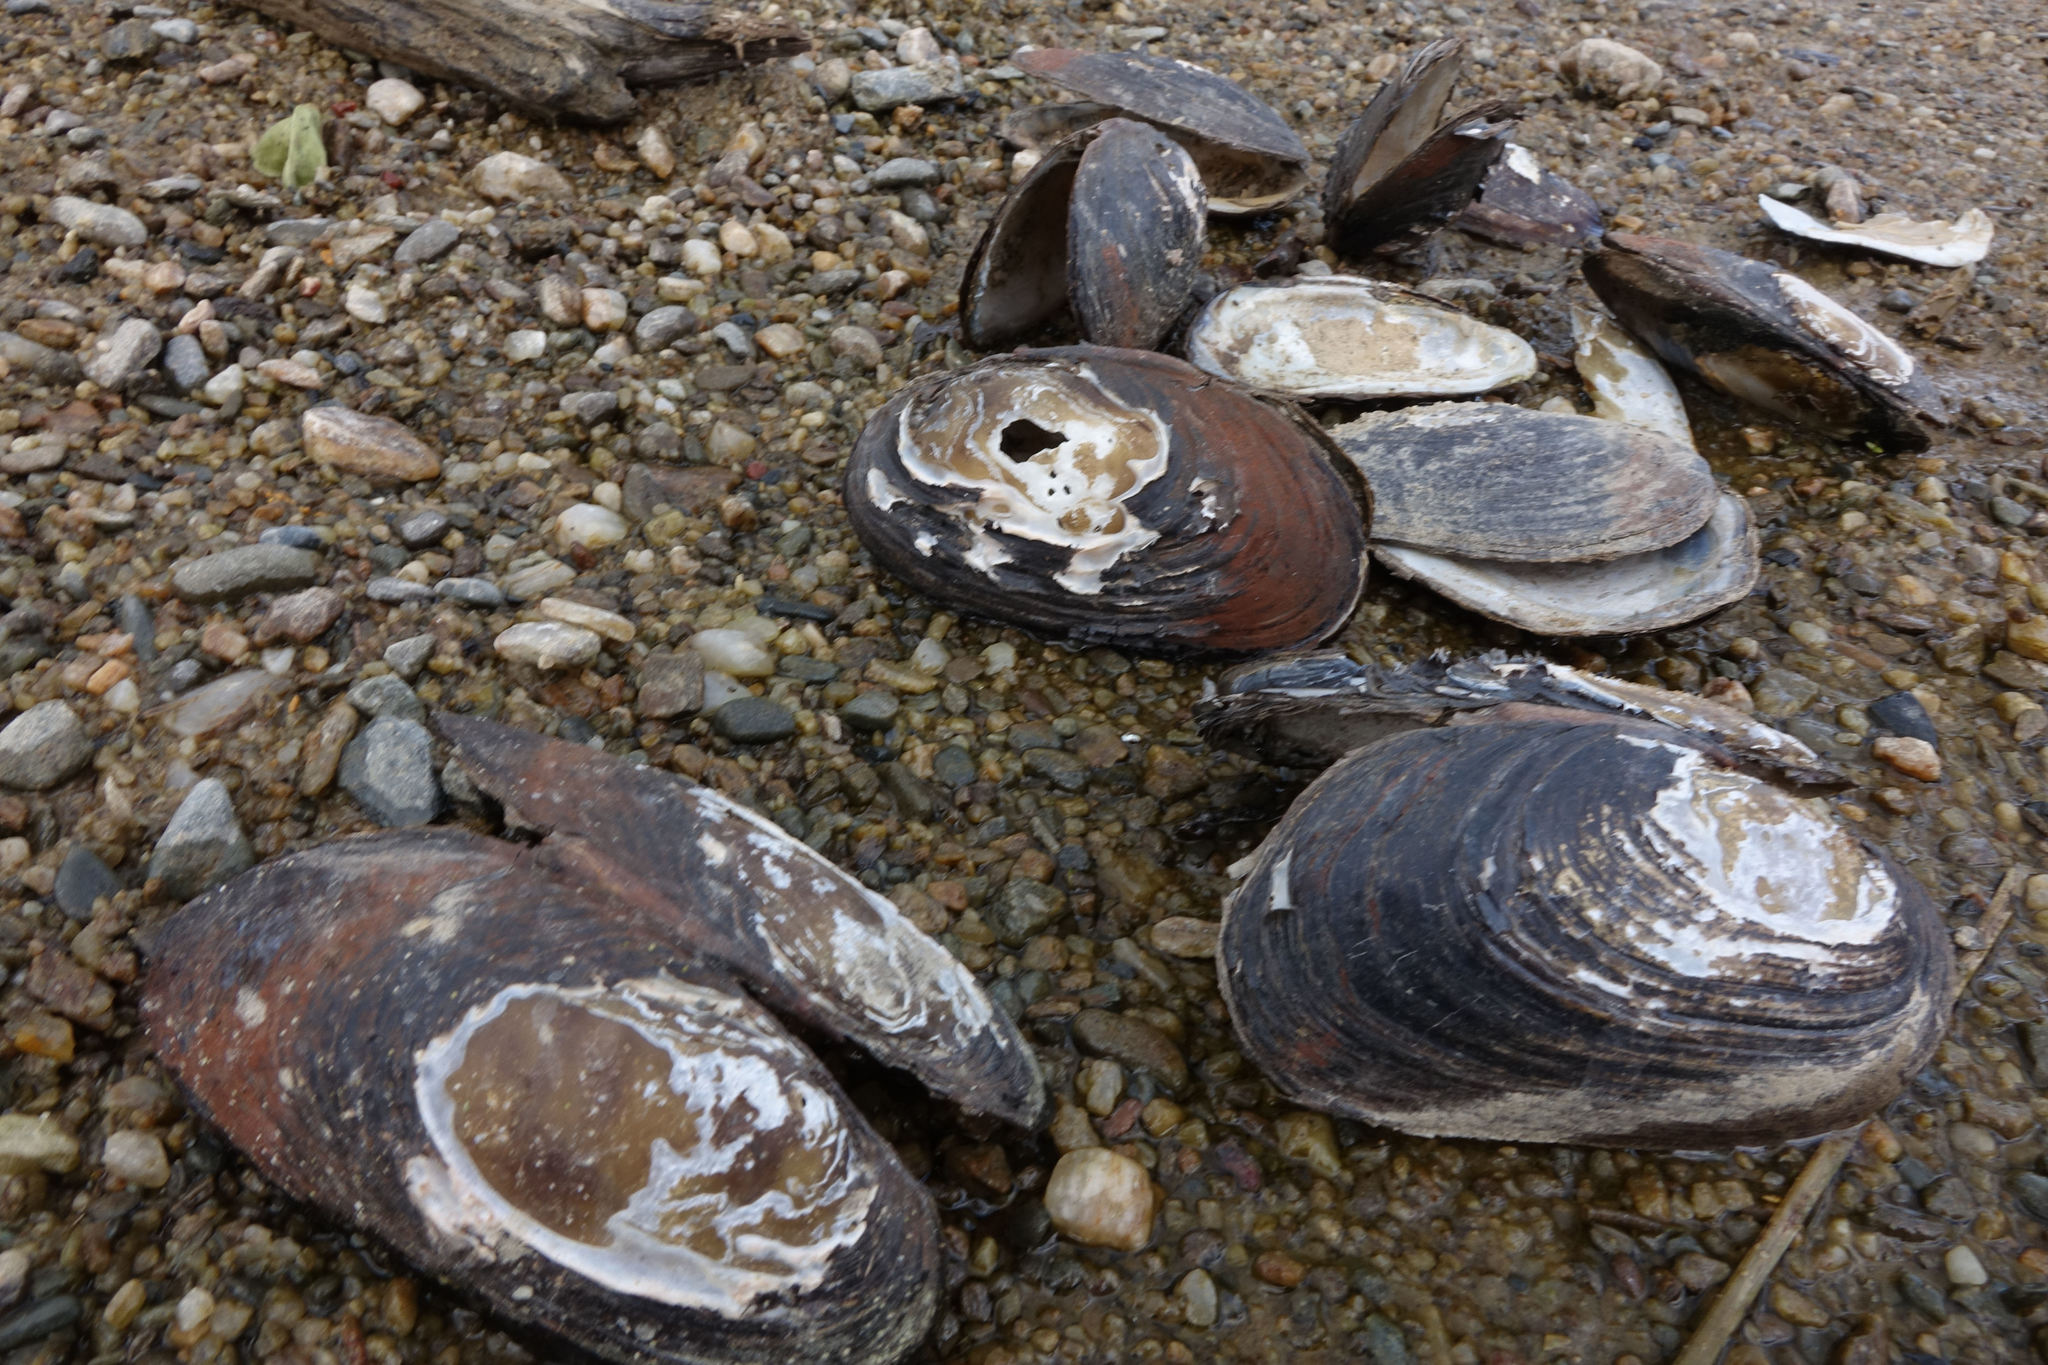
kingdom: Animalia
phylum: Mollusca
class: Bivalvia
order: Unionida
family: Hyriidae
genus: Echyridella
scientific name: Echyridella menziesii
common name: New zealand freshwater mussel
